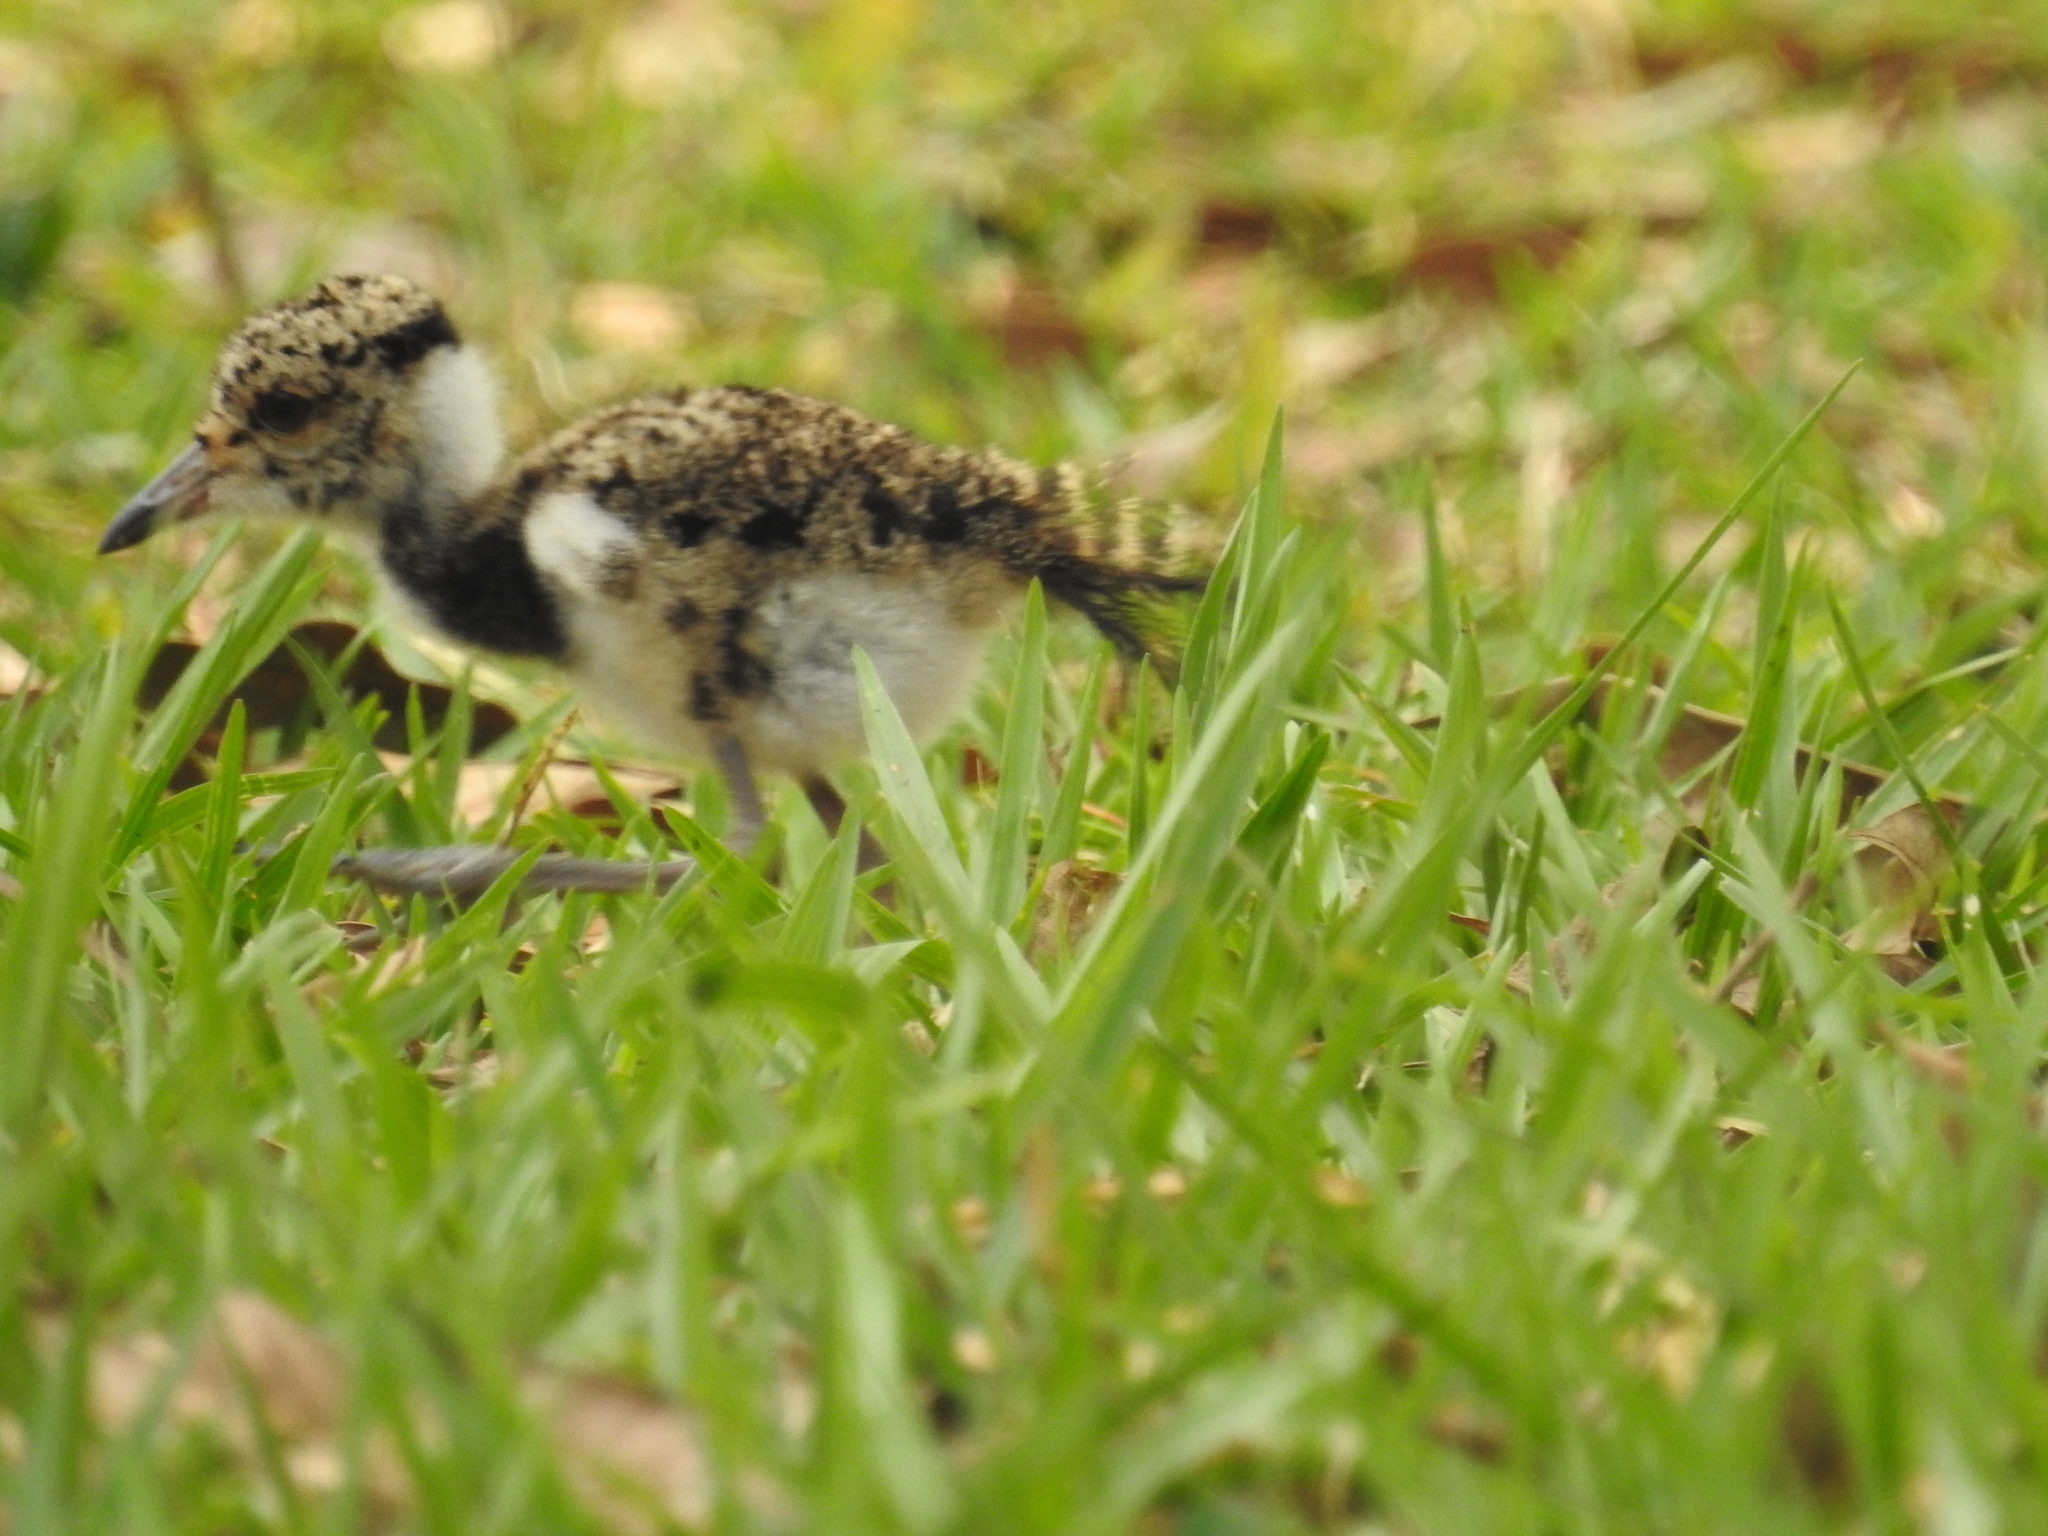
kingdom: Animalia
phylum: Chordata
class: Aves
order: Charadriiformes
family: Charadriidae
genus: Vanellus
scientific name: Vanellus chilensis
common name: Southern lapwing
